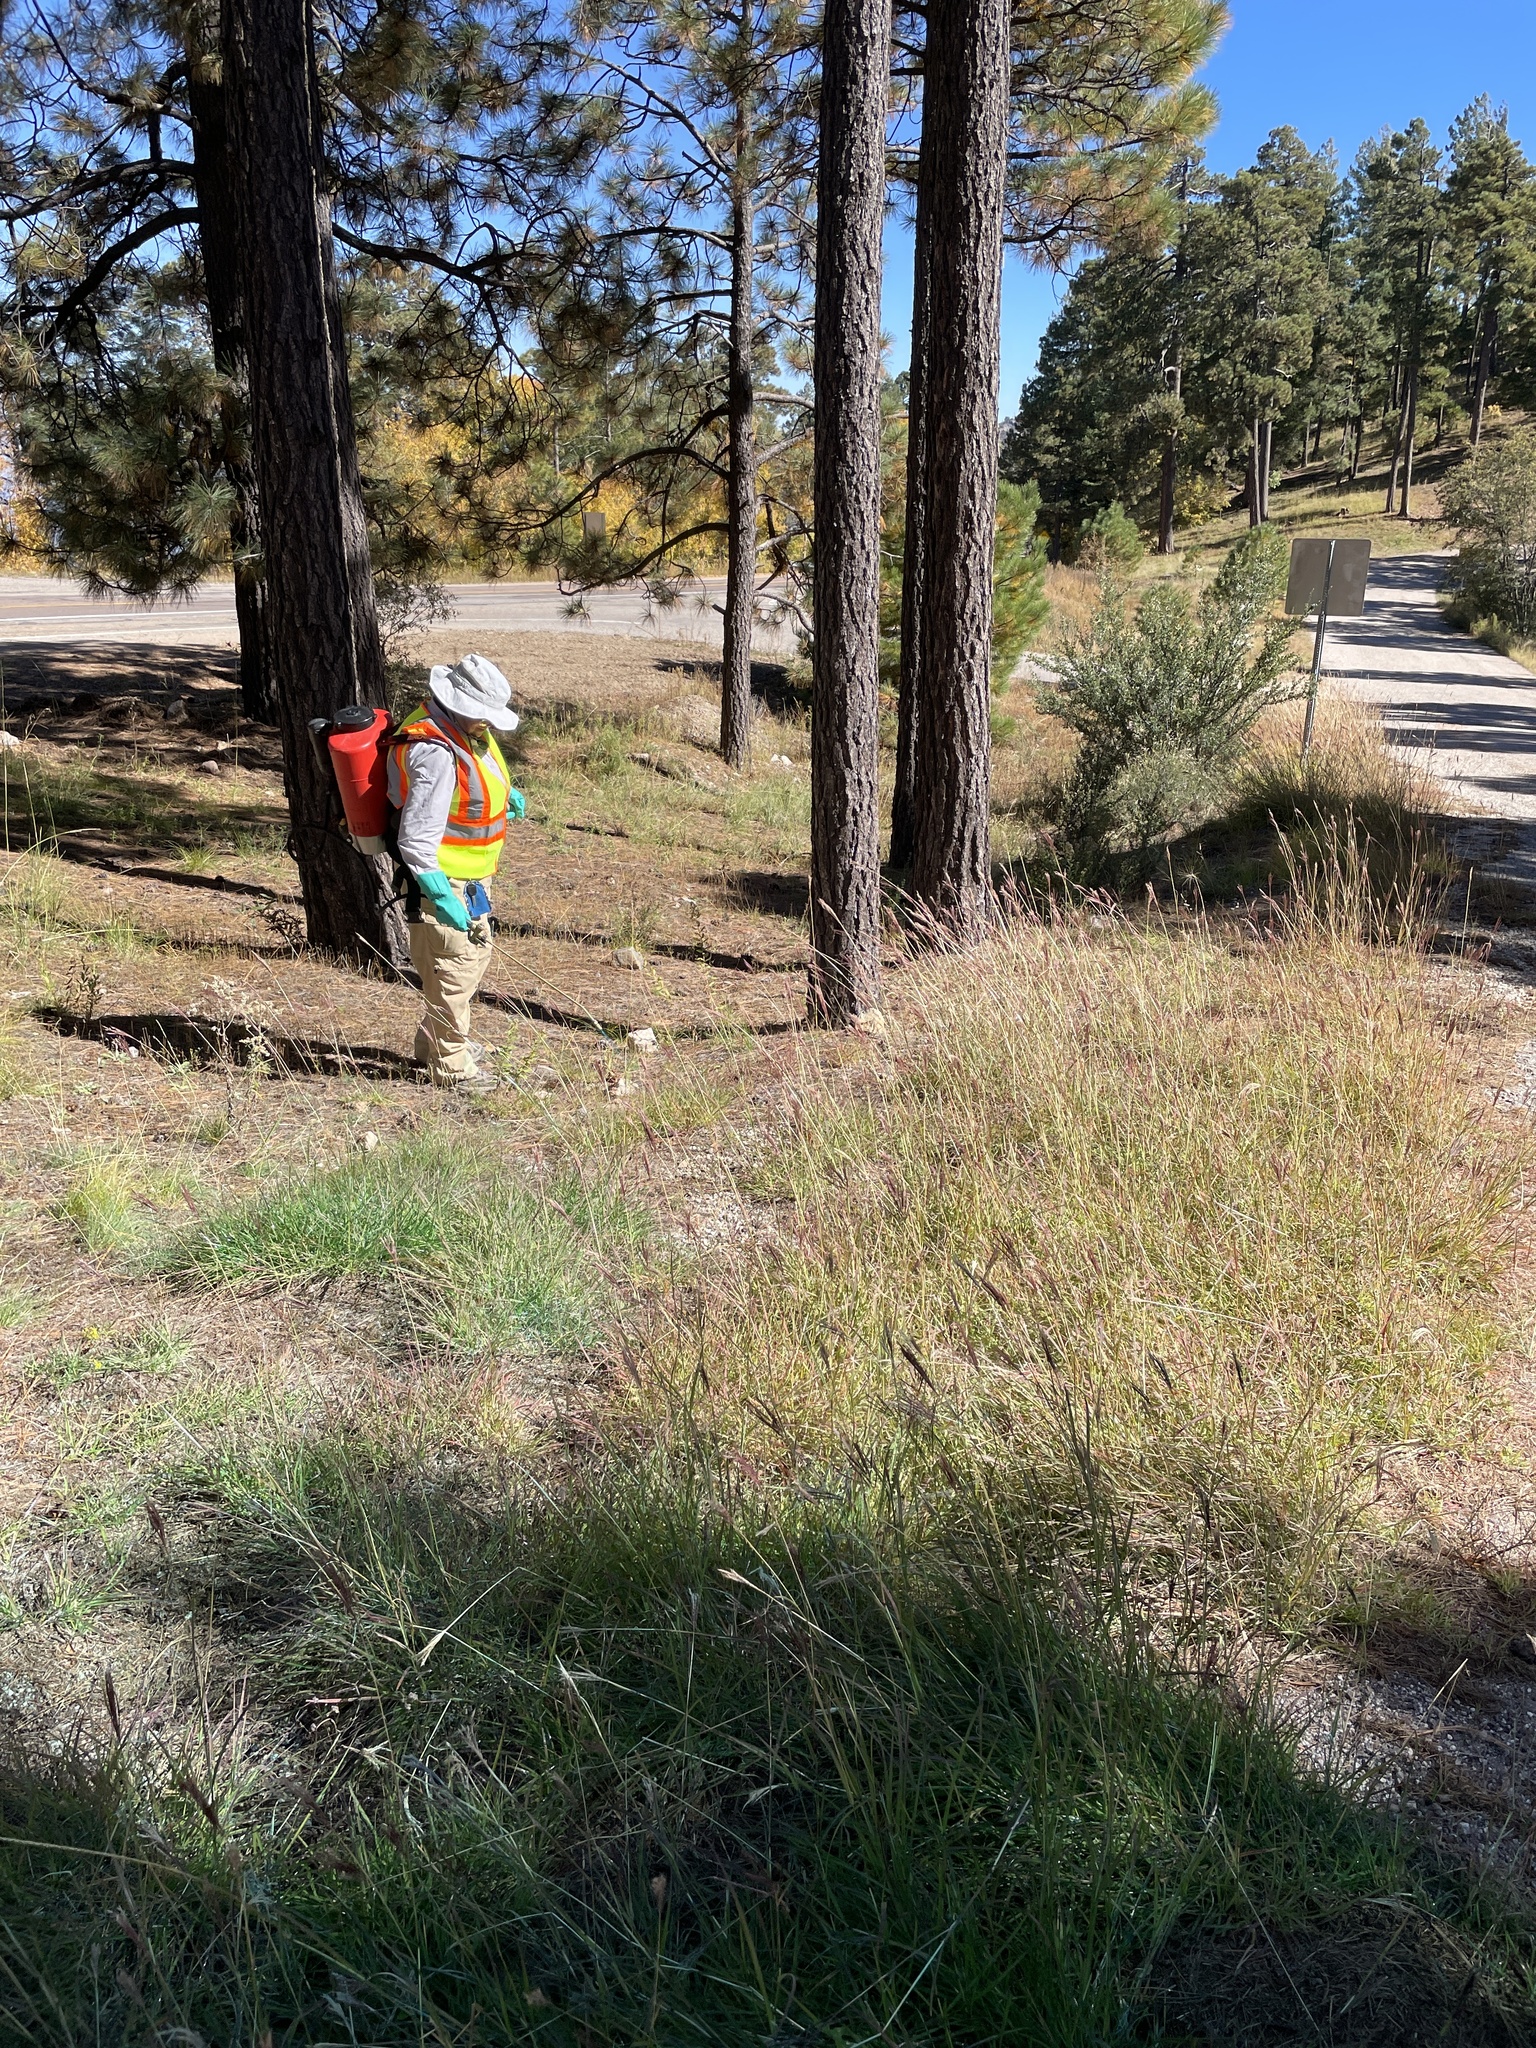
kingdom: Plantae
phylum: Tracheophyta
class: Liliopsida
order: Poales
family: Poaceae
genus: Bothriochloa
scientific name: Bothriochloa ischaemum
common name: Yellow bluestem
